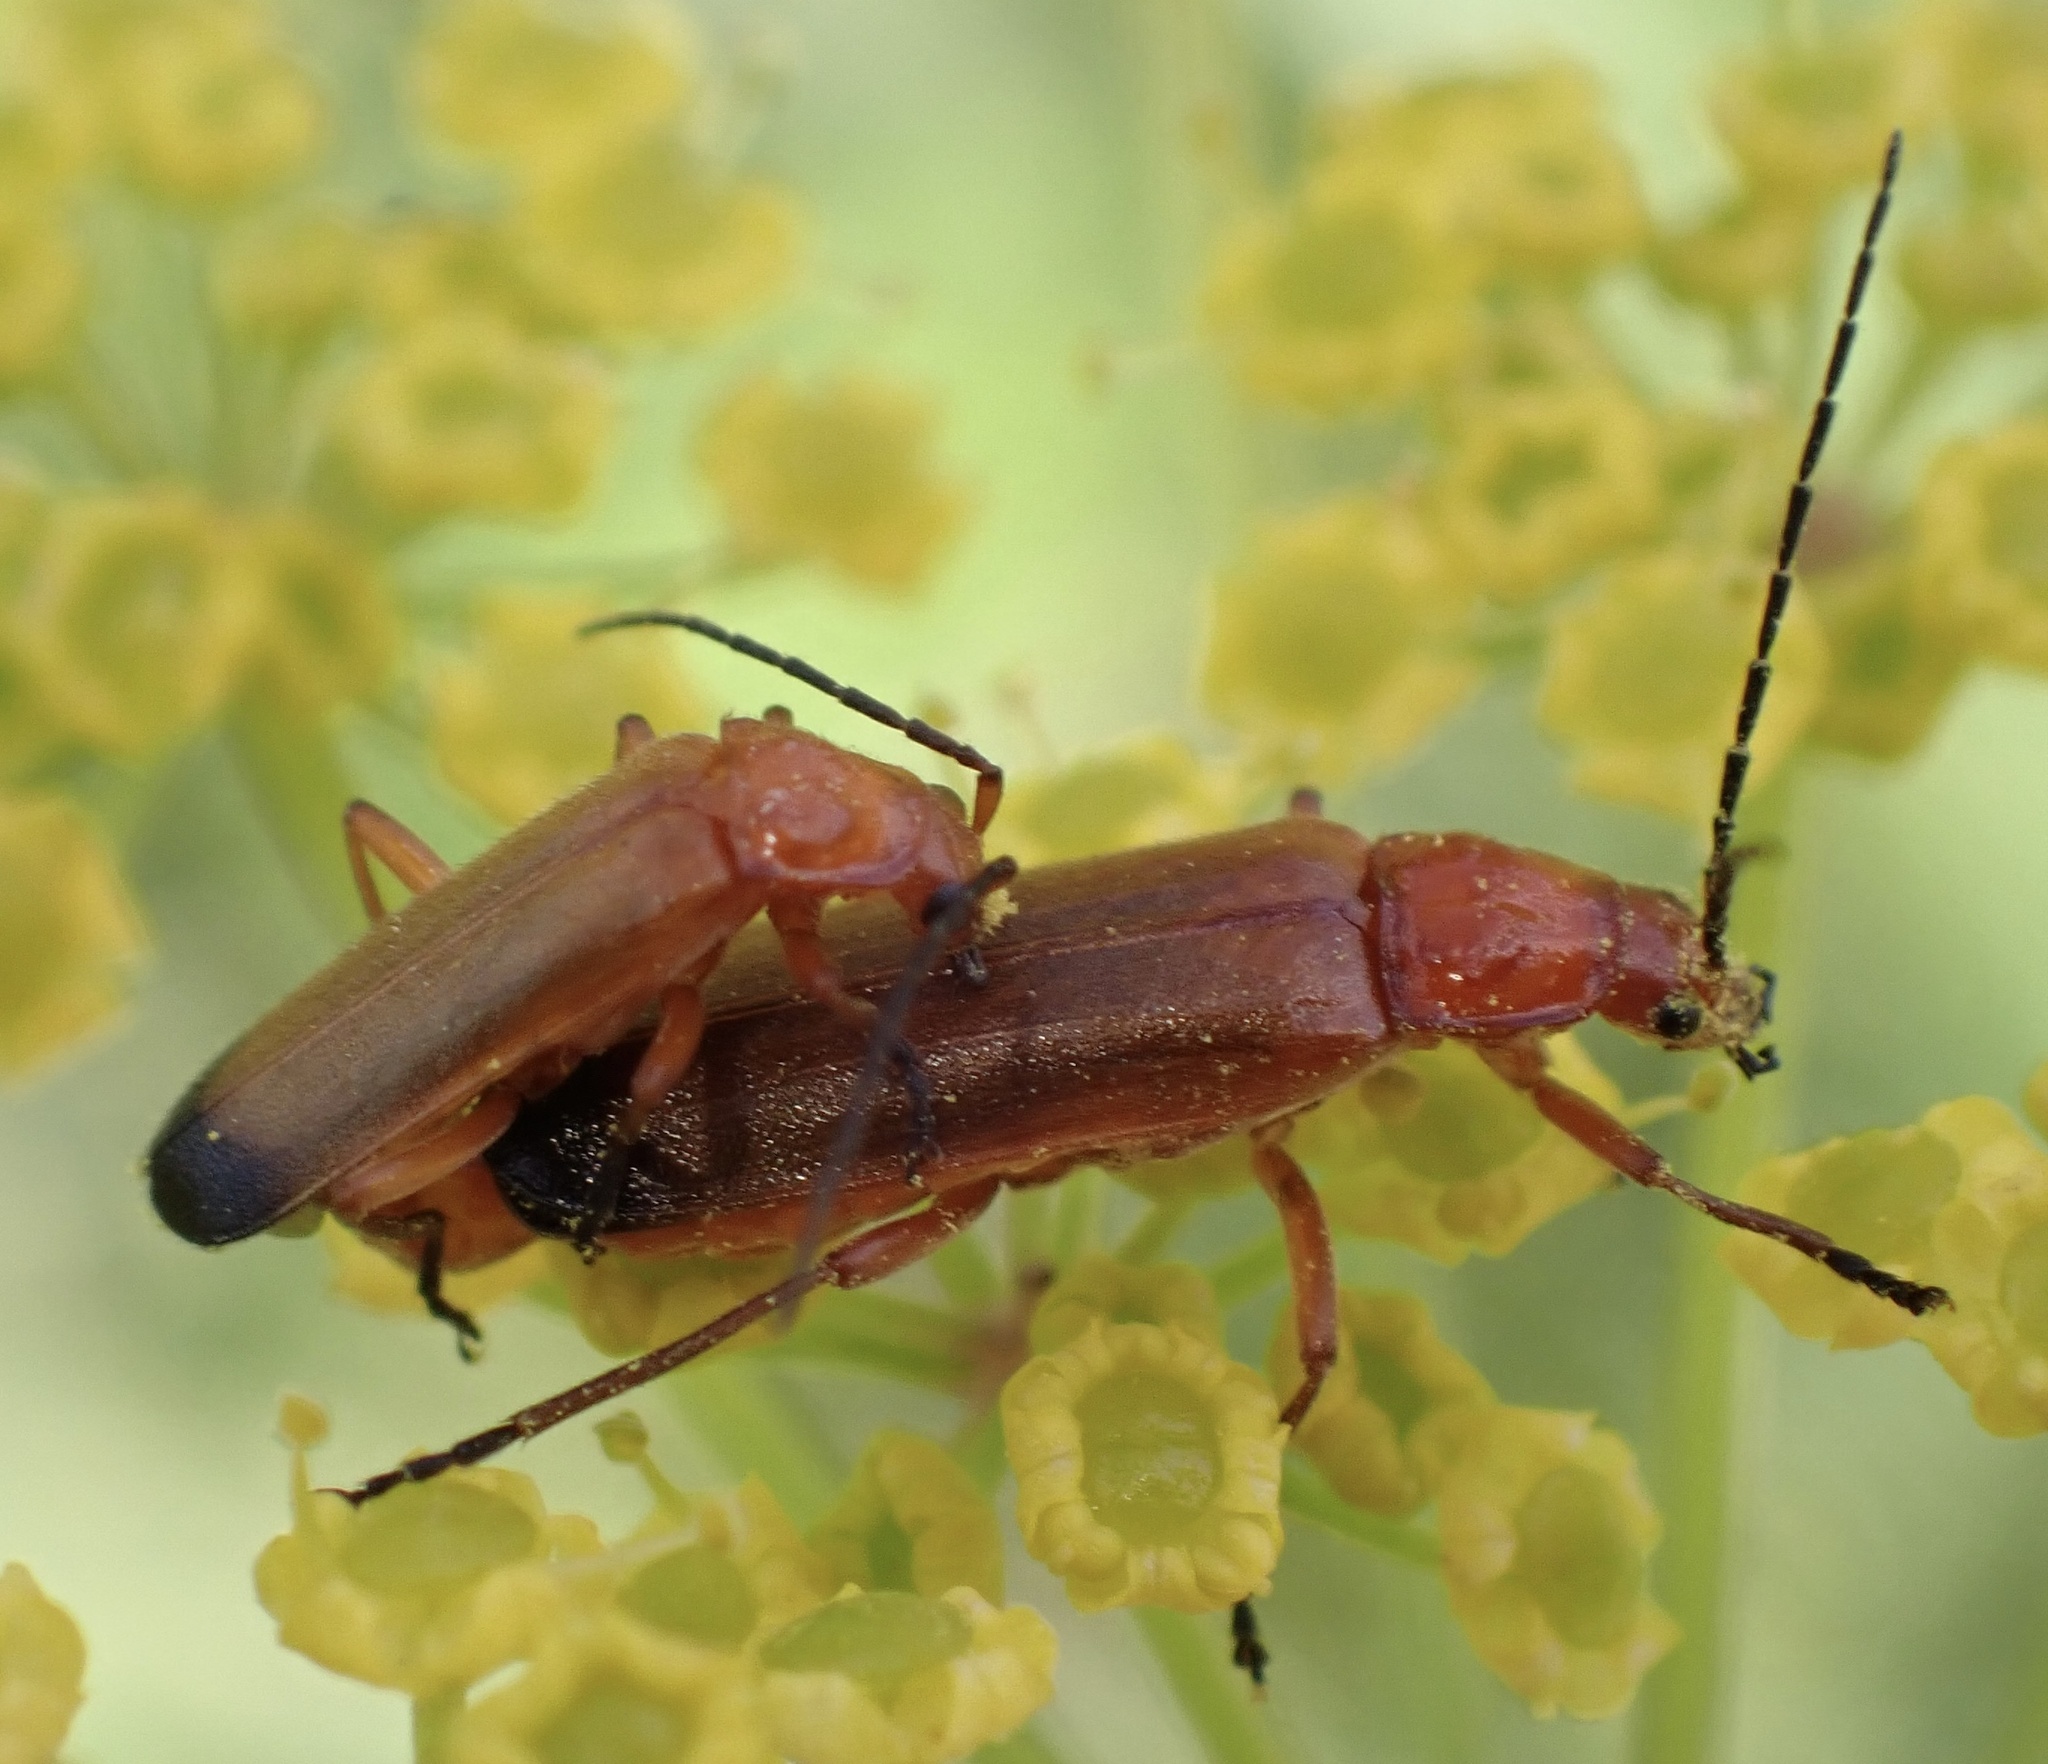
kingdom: Animalia
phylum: Arthropoda
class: Insecta
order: Coleoptera
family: Cantharidae
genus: Rhagonycha
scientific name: Rhagonycha fulva
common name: Common red soldier beetle
